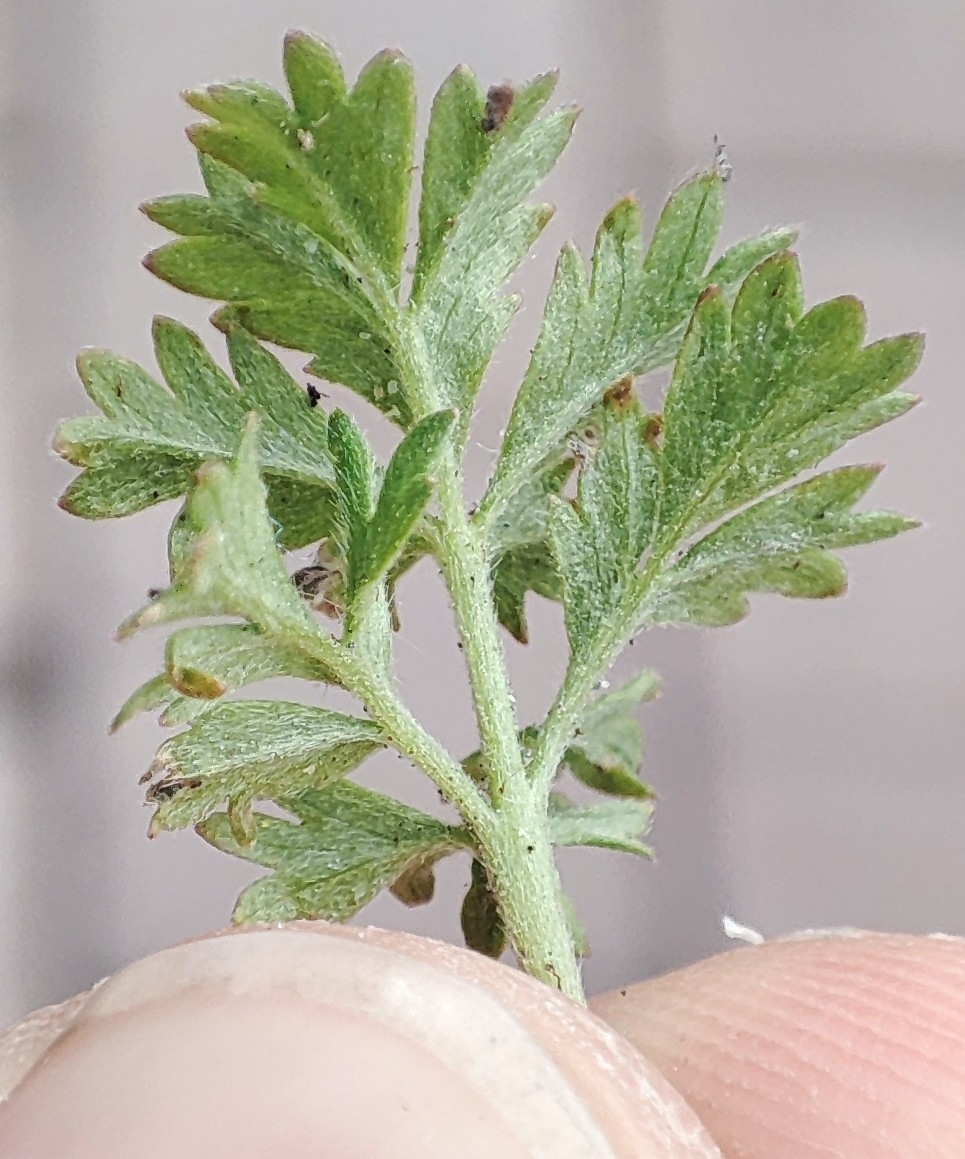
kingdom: Plantae
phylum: Tracheophyta
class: Magnoliopsida
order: Rosales
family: Rosaceae
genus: Potentilla
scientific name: Potentilla tobolensis
